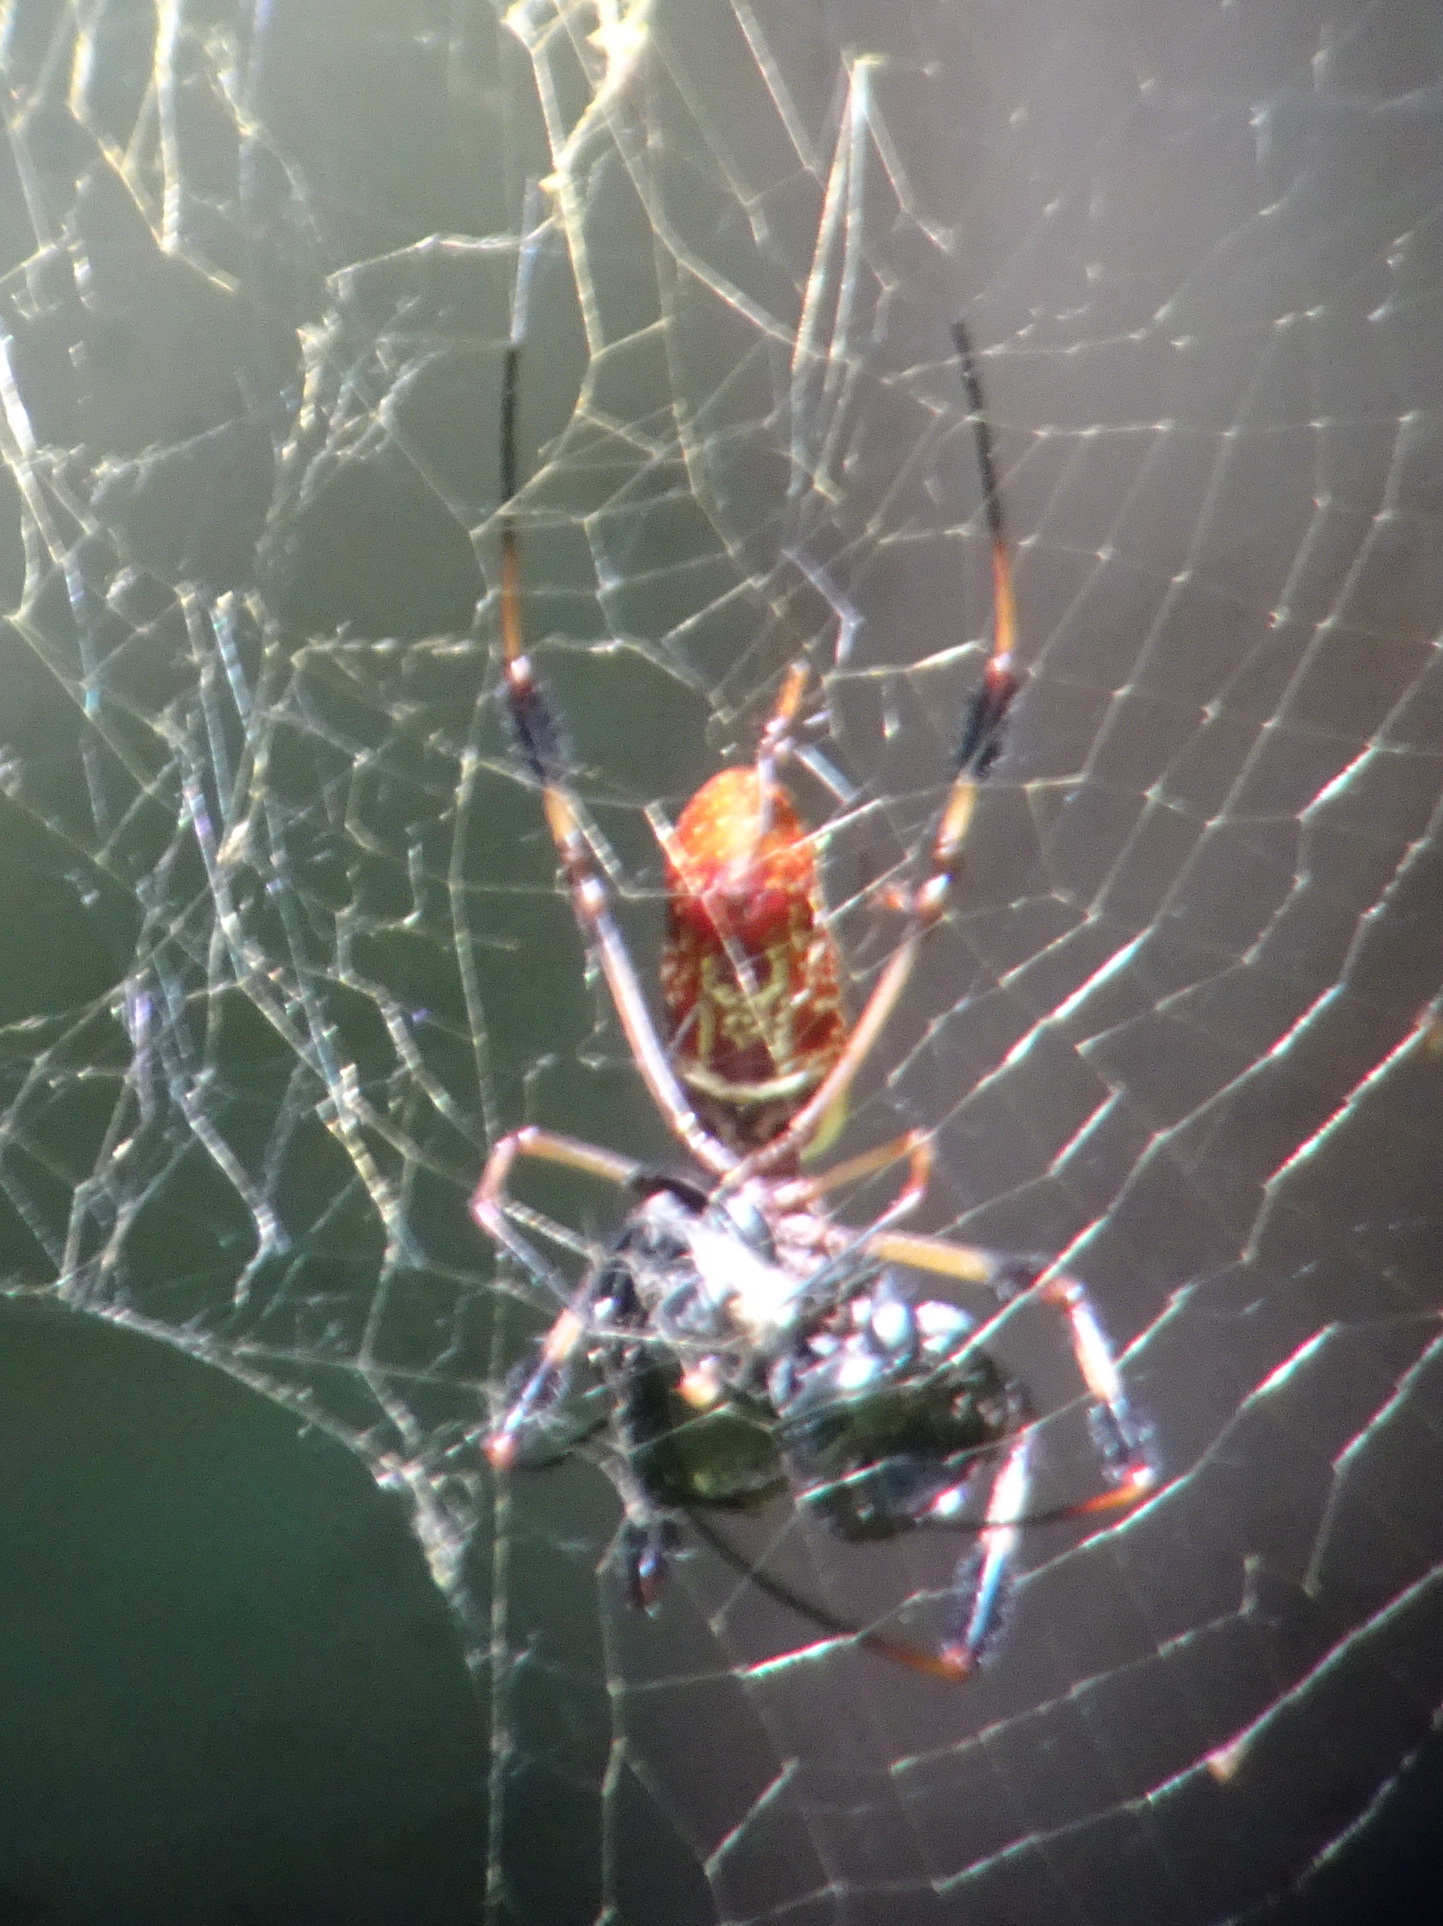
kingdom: Animalia
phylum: Arthropoda
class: Arachnida
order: Araneae
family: Araneidae
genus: Trichonephila
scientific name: Trichonephila clavipes
